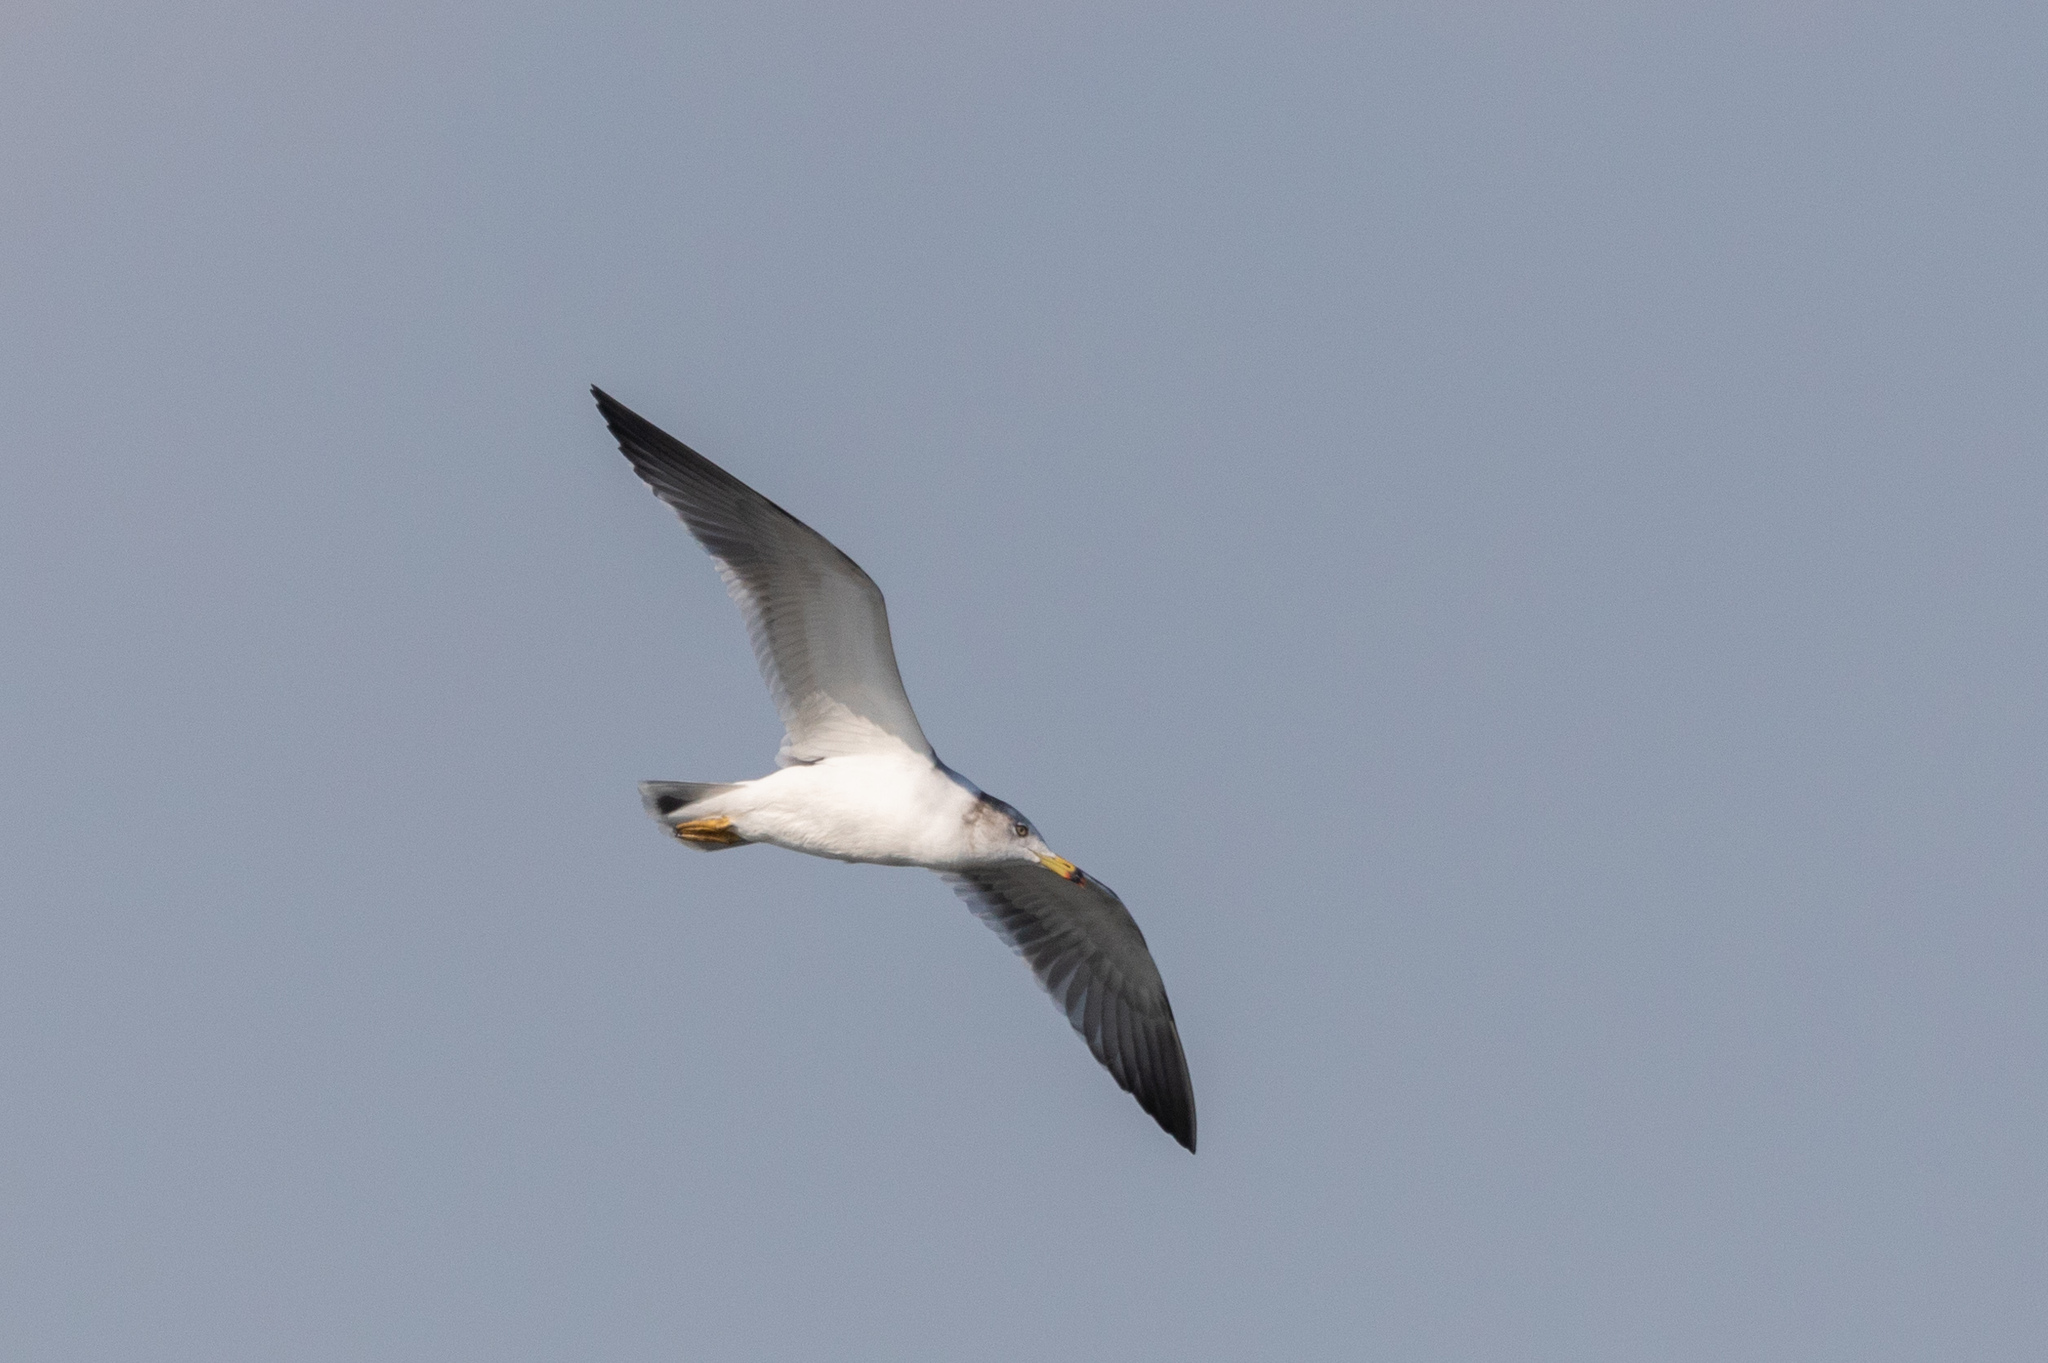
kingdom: Animalia
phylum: Chordata
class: Aves
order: Charadriiformes
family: Laridae
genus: Larus
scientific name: Larus crassirostris
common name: Black-tailed gull
